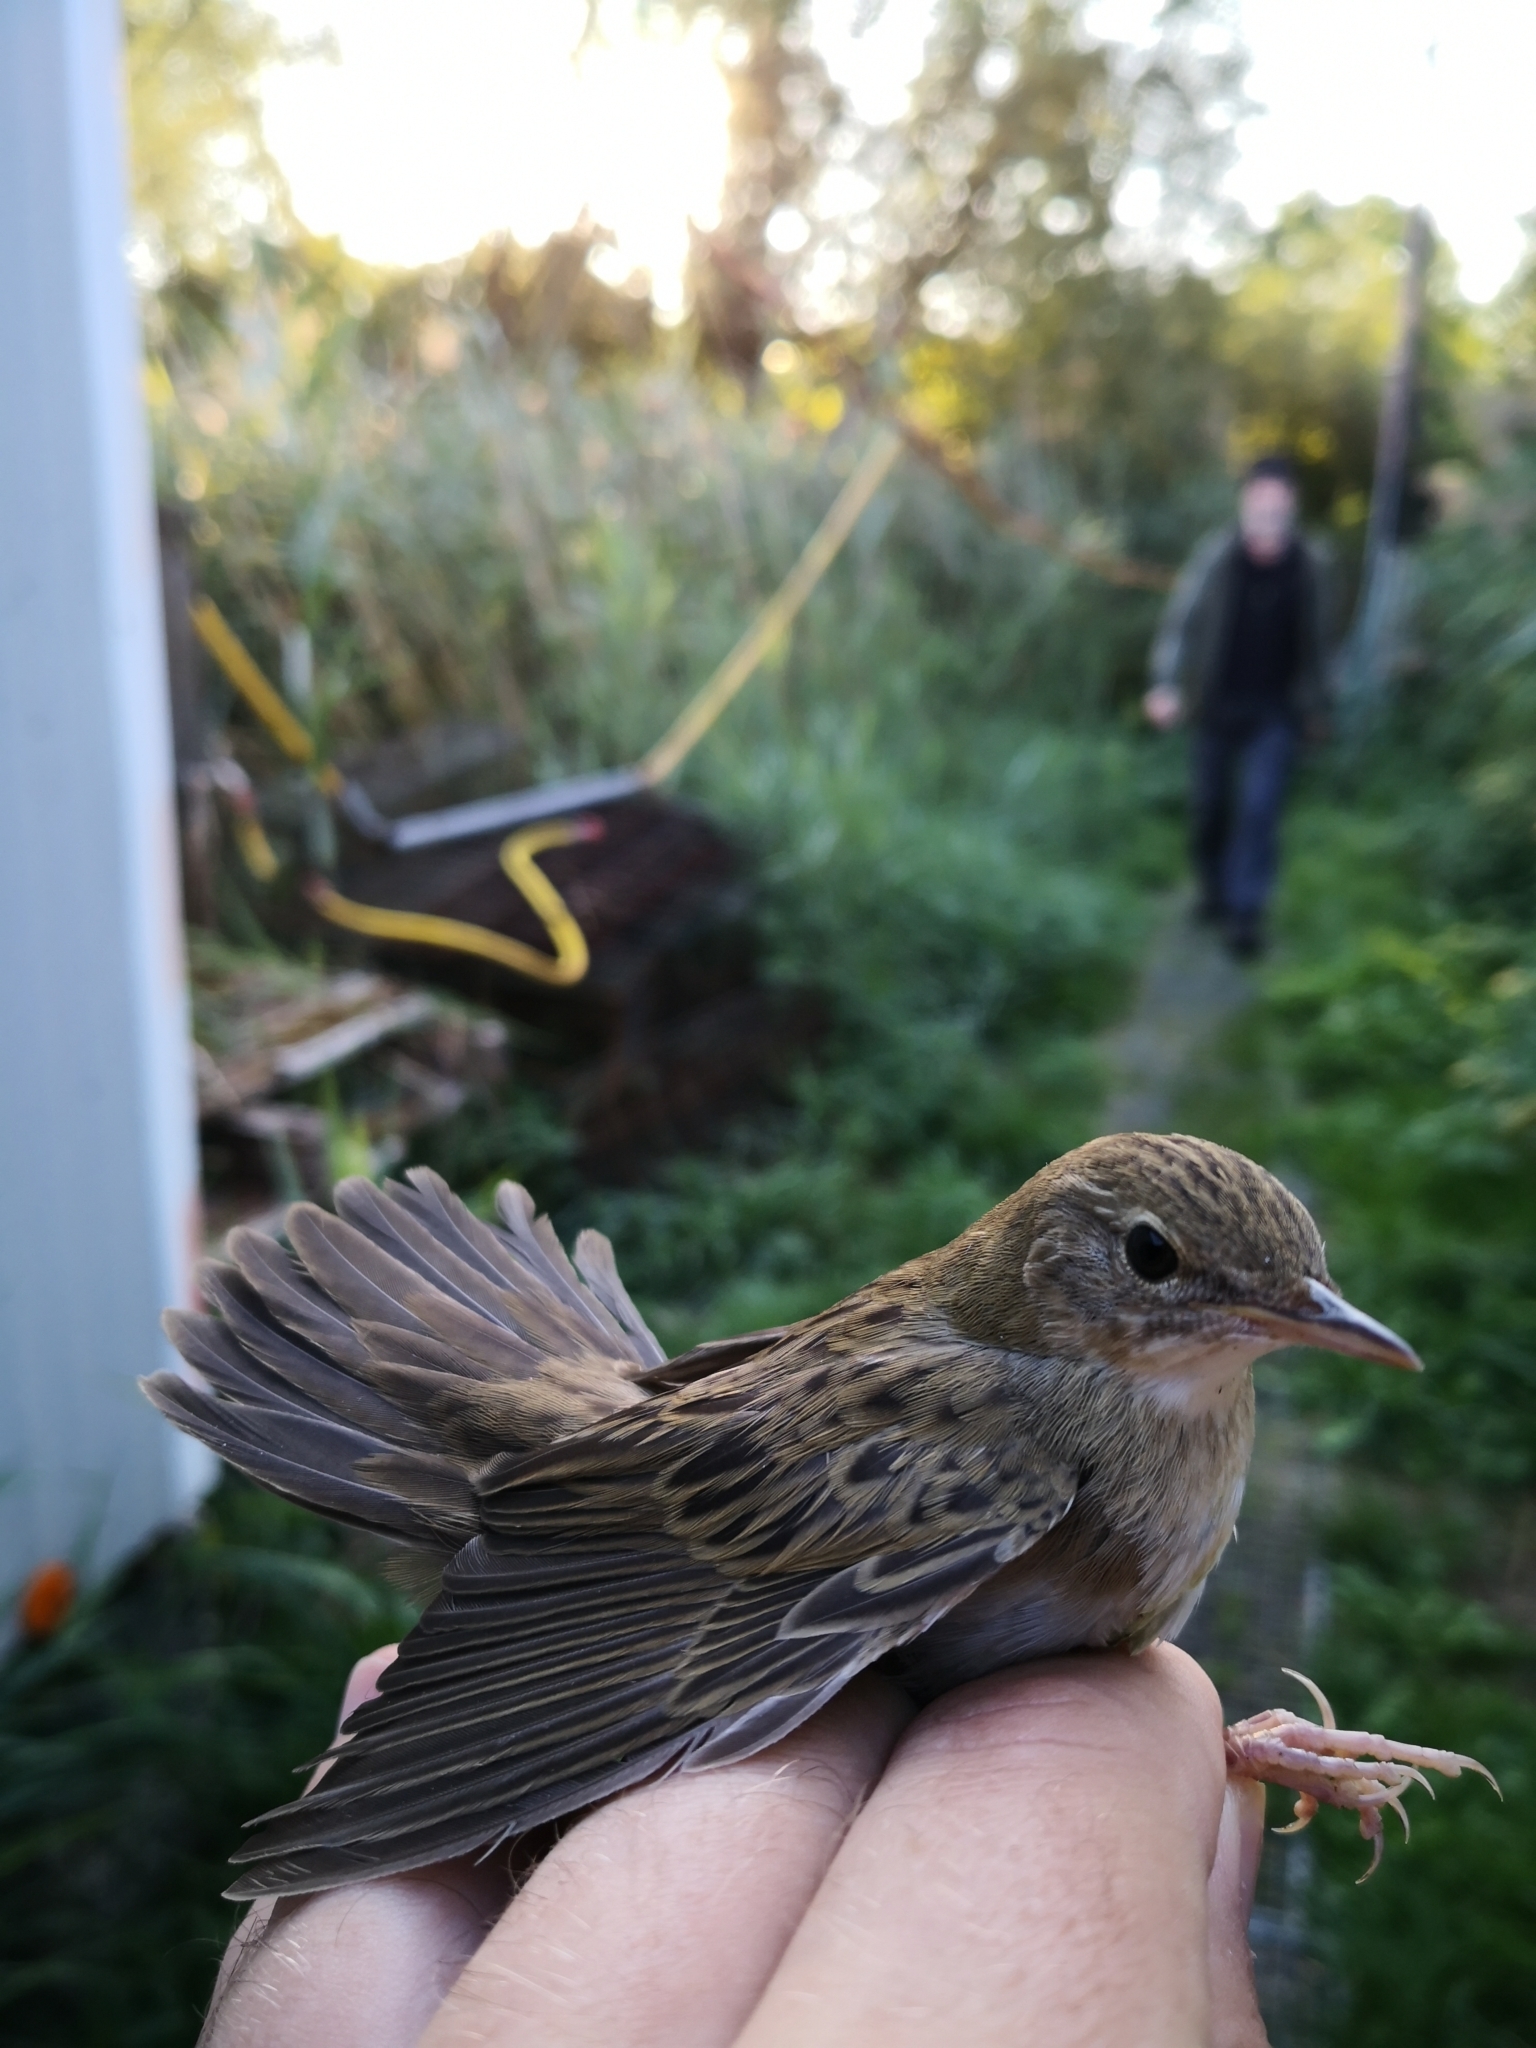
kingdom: Animalia
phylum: Chordata
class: Aves
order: Passeriformes
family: Locustellidae
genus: Locustella
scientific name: Locustella naevia
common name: Common grasshopper warbler
